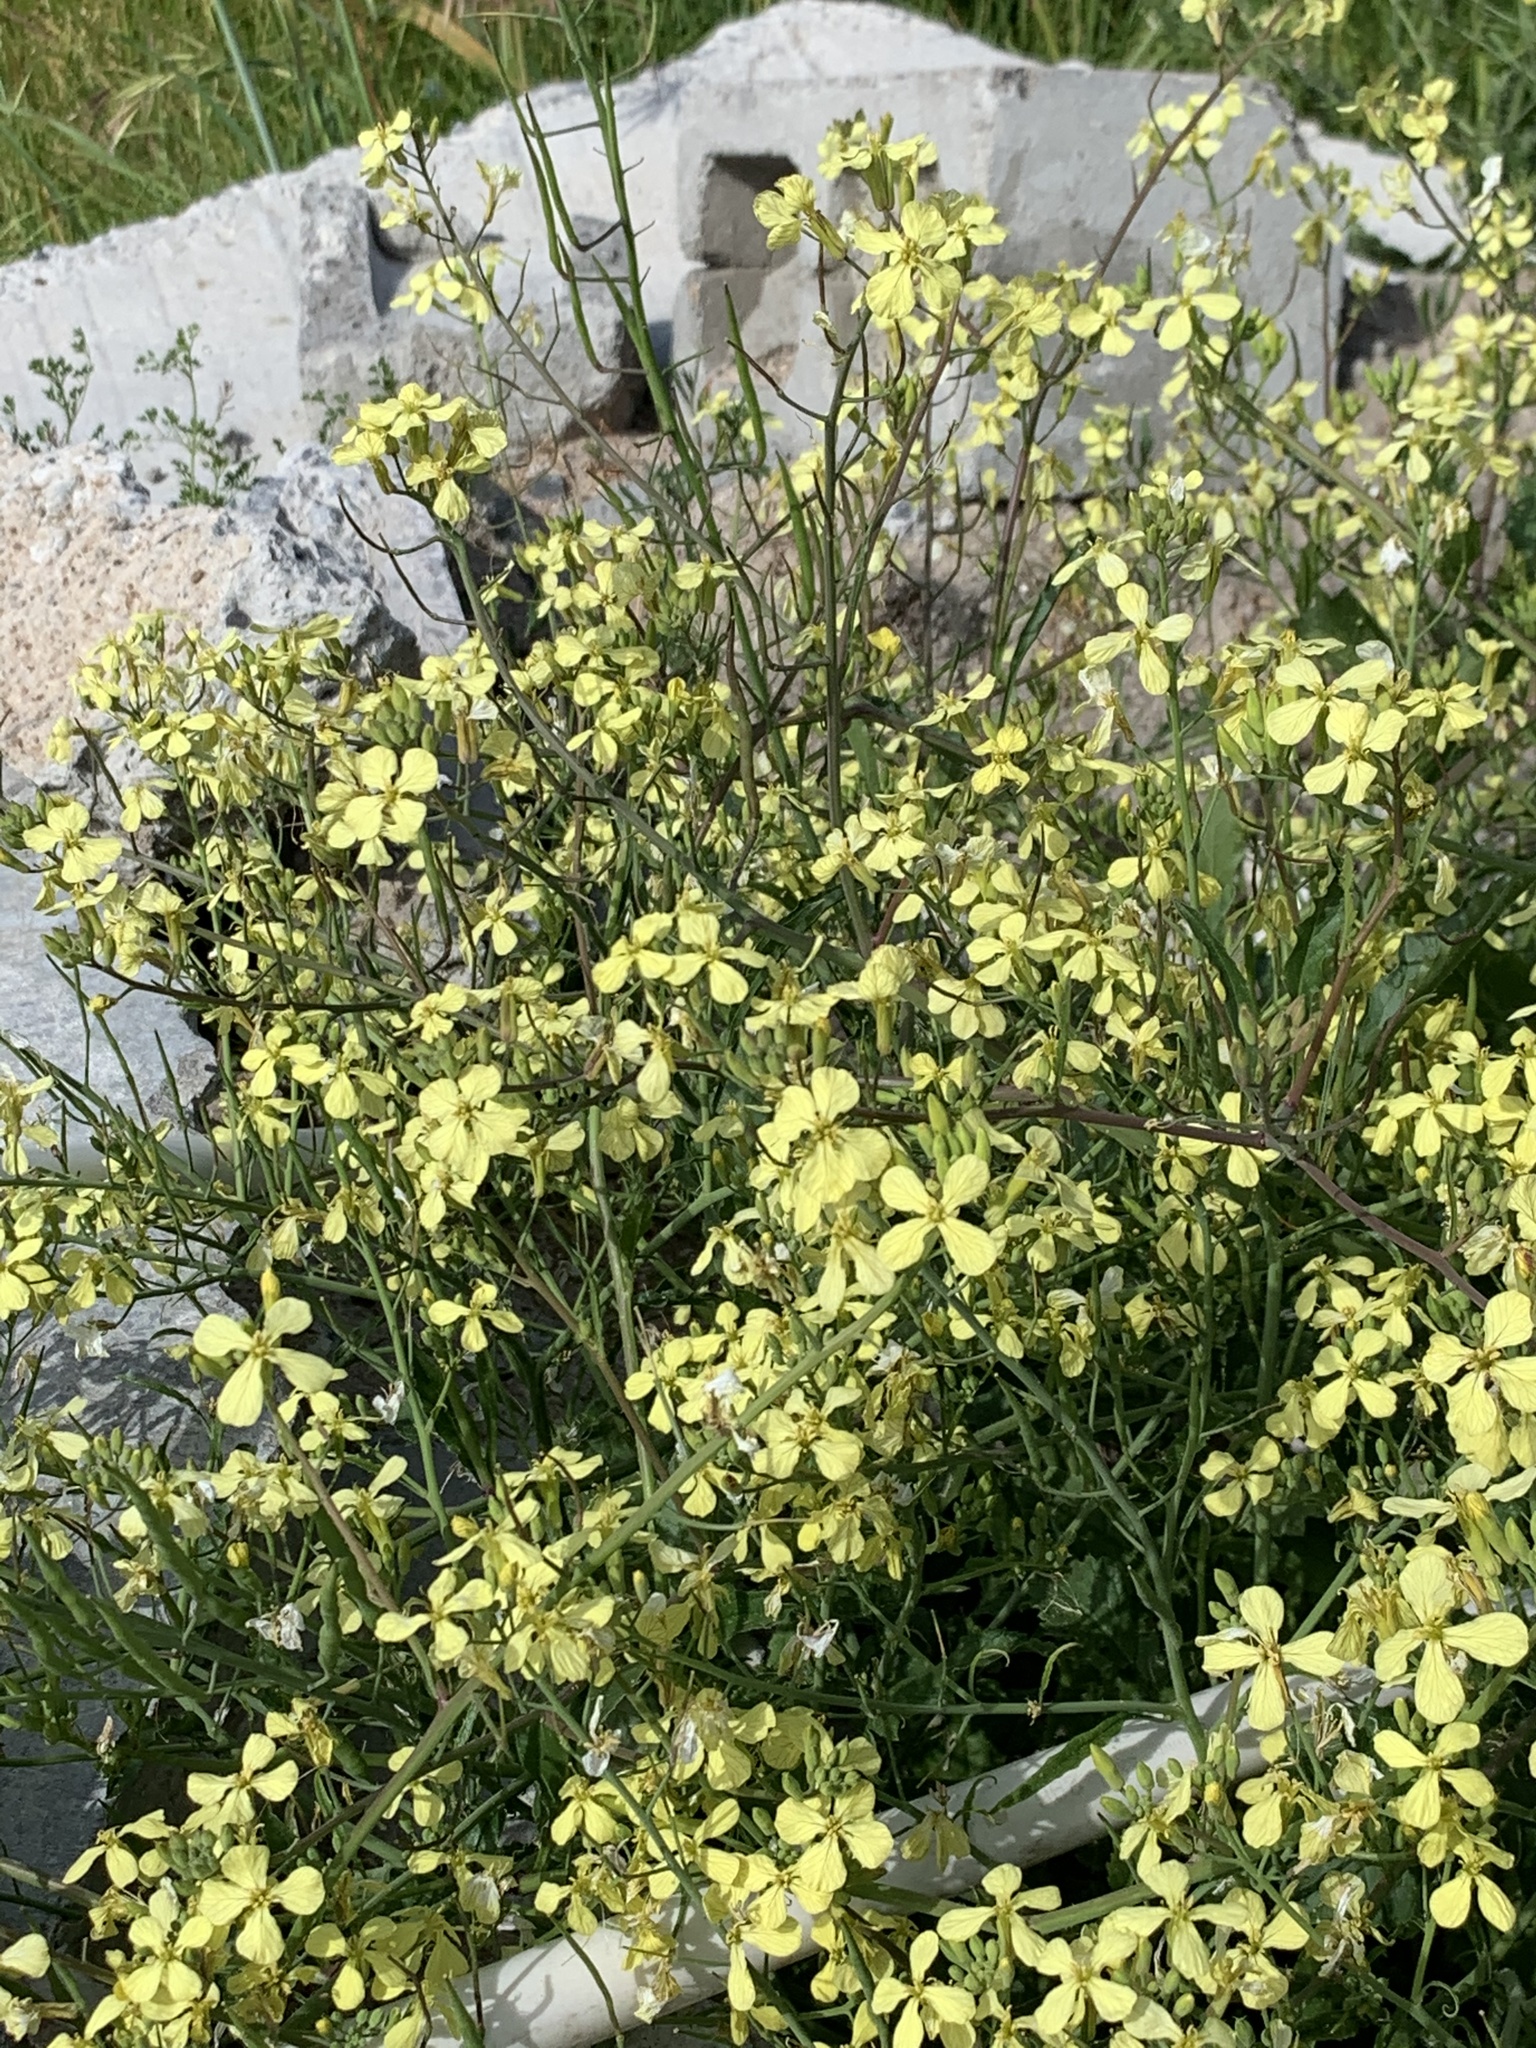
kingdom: Plantae
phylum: Tracheophyta
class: Magnoliopsida
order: Brassicales
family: Brassicaceae
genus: Raphanus
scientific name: Raphanus raphanistrum
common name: Wild radish
